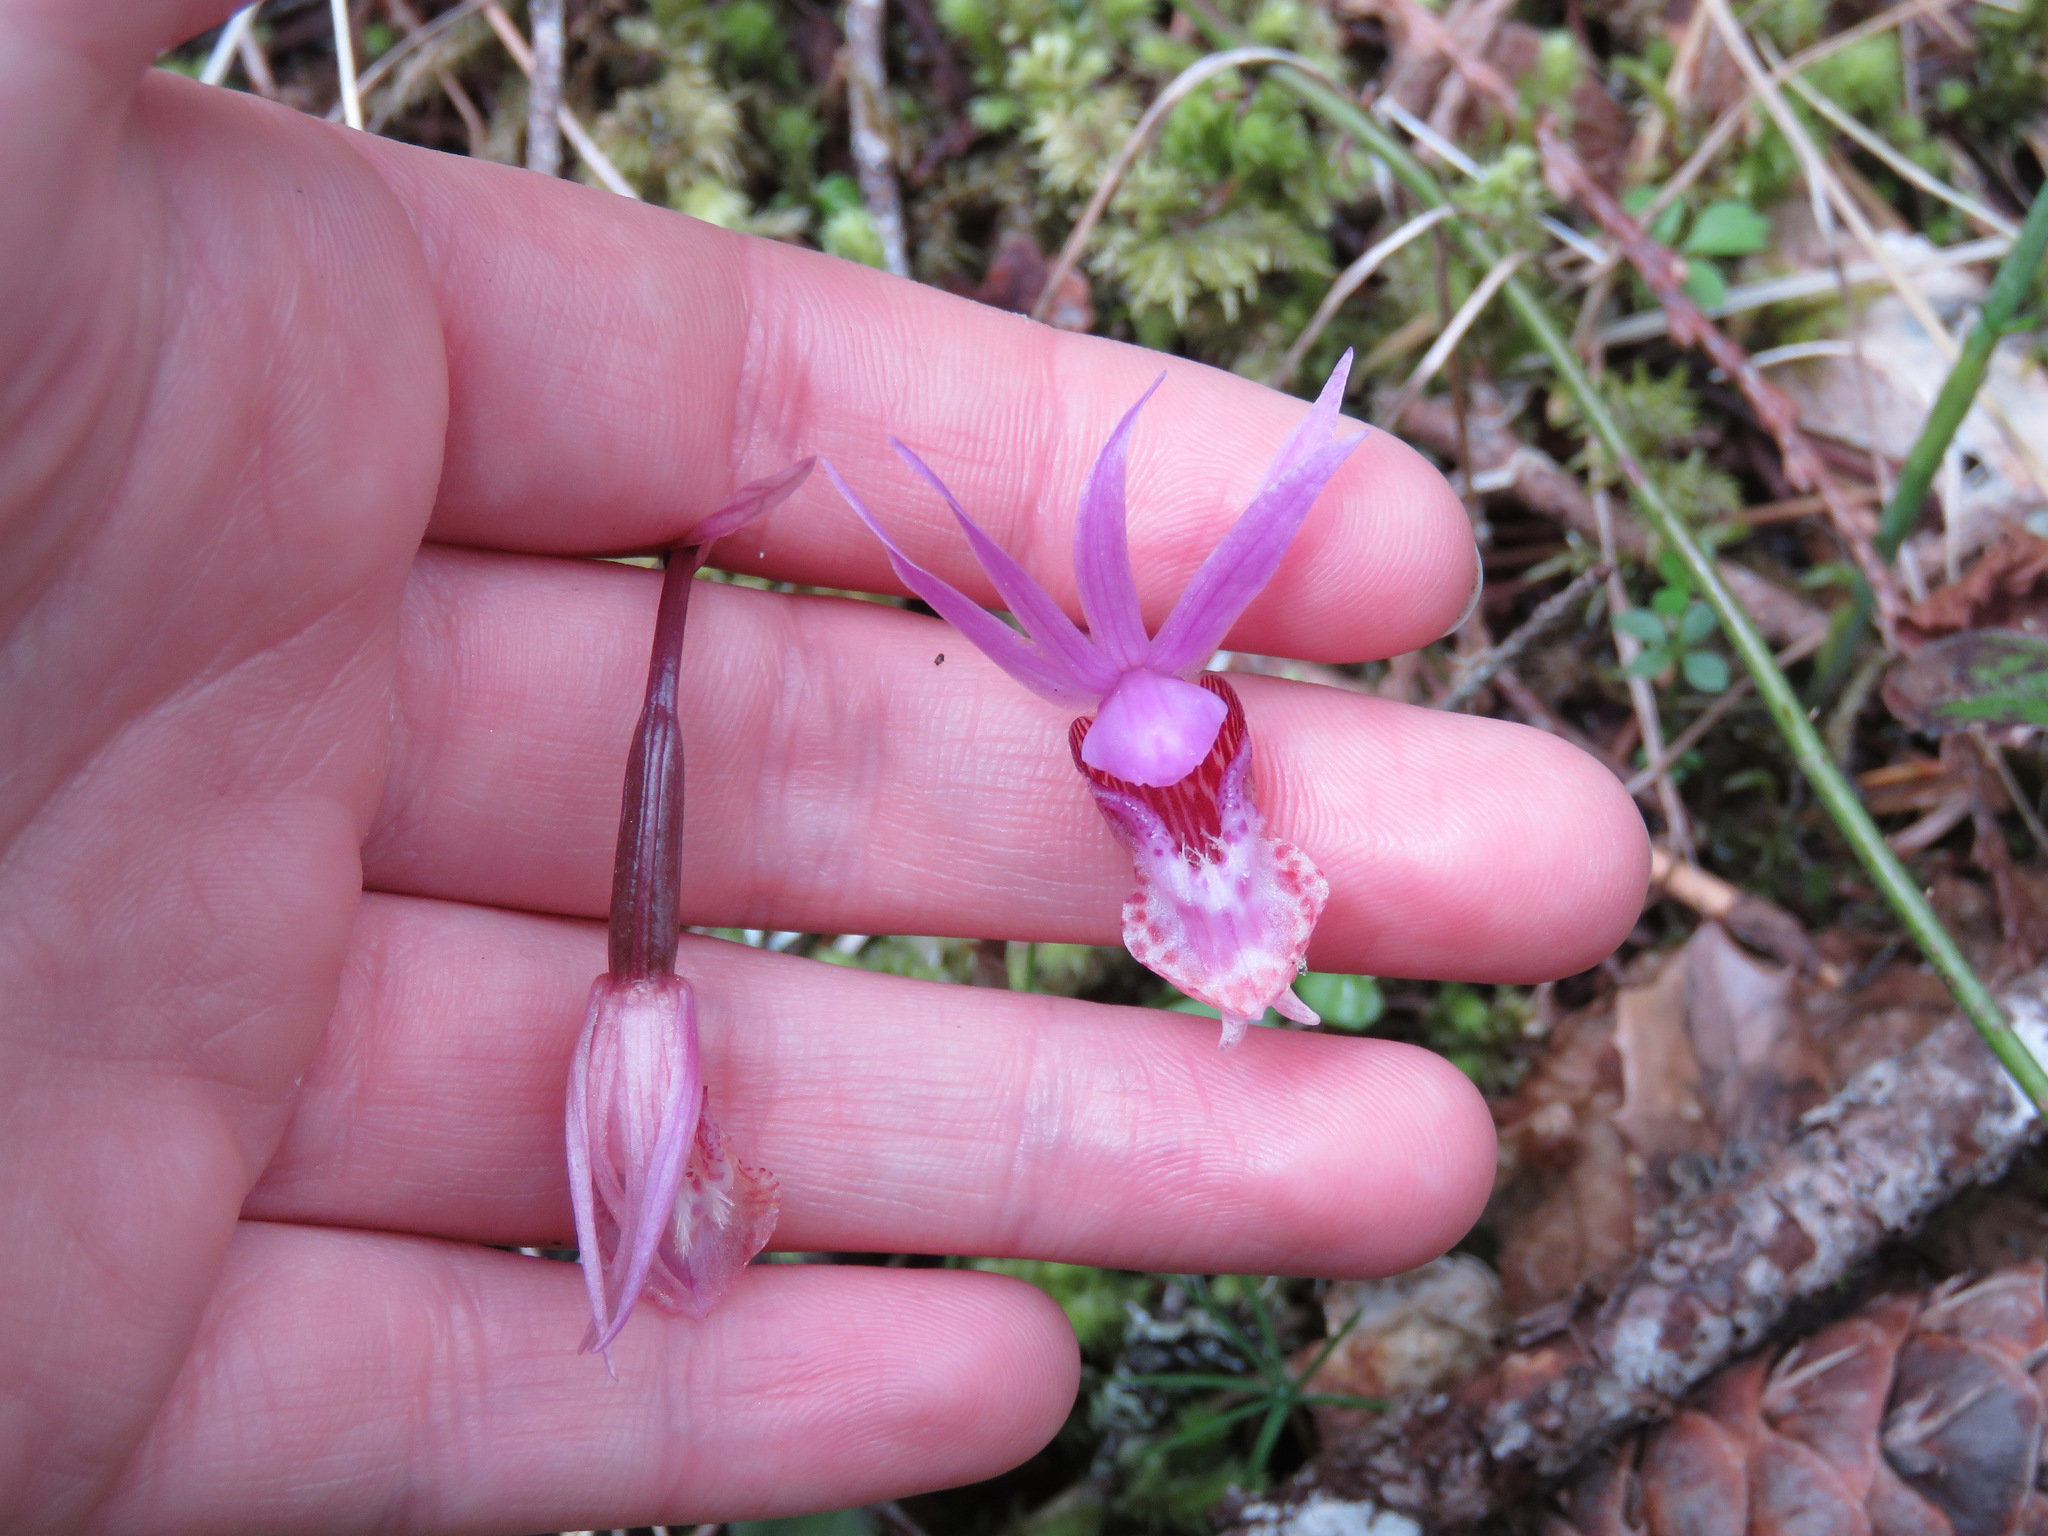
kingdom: Plantae
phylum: Tracheophyta
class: Liliopsida
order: Asparagales
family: Orchidaceae
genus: Calypso
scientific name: Calypso bulbosa
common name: Calypso
